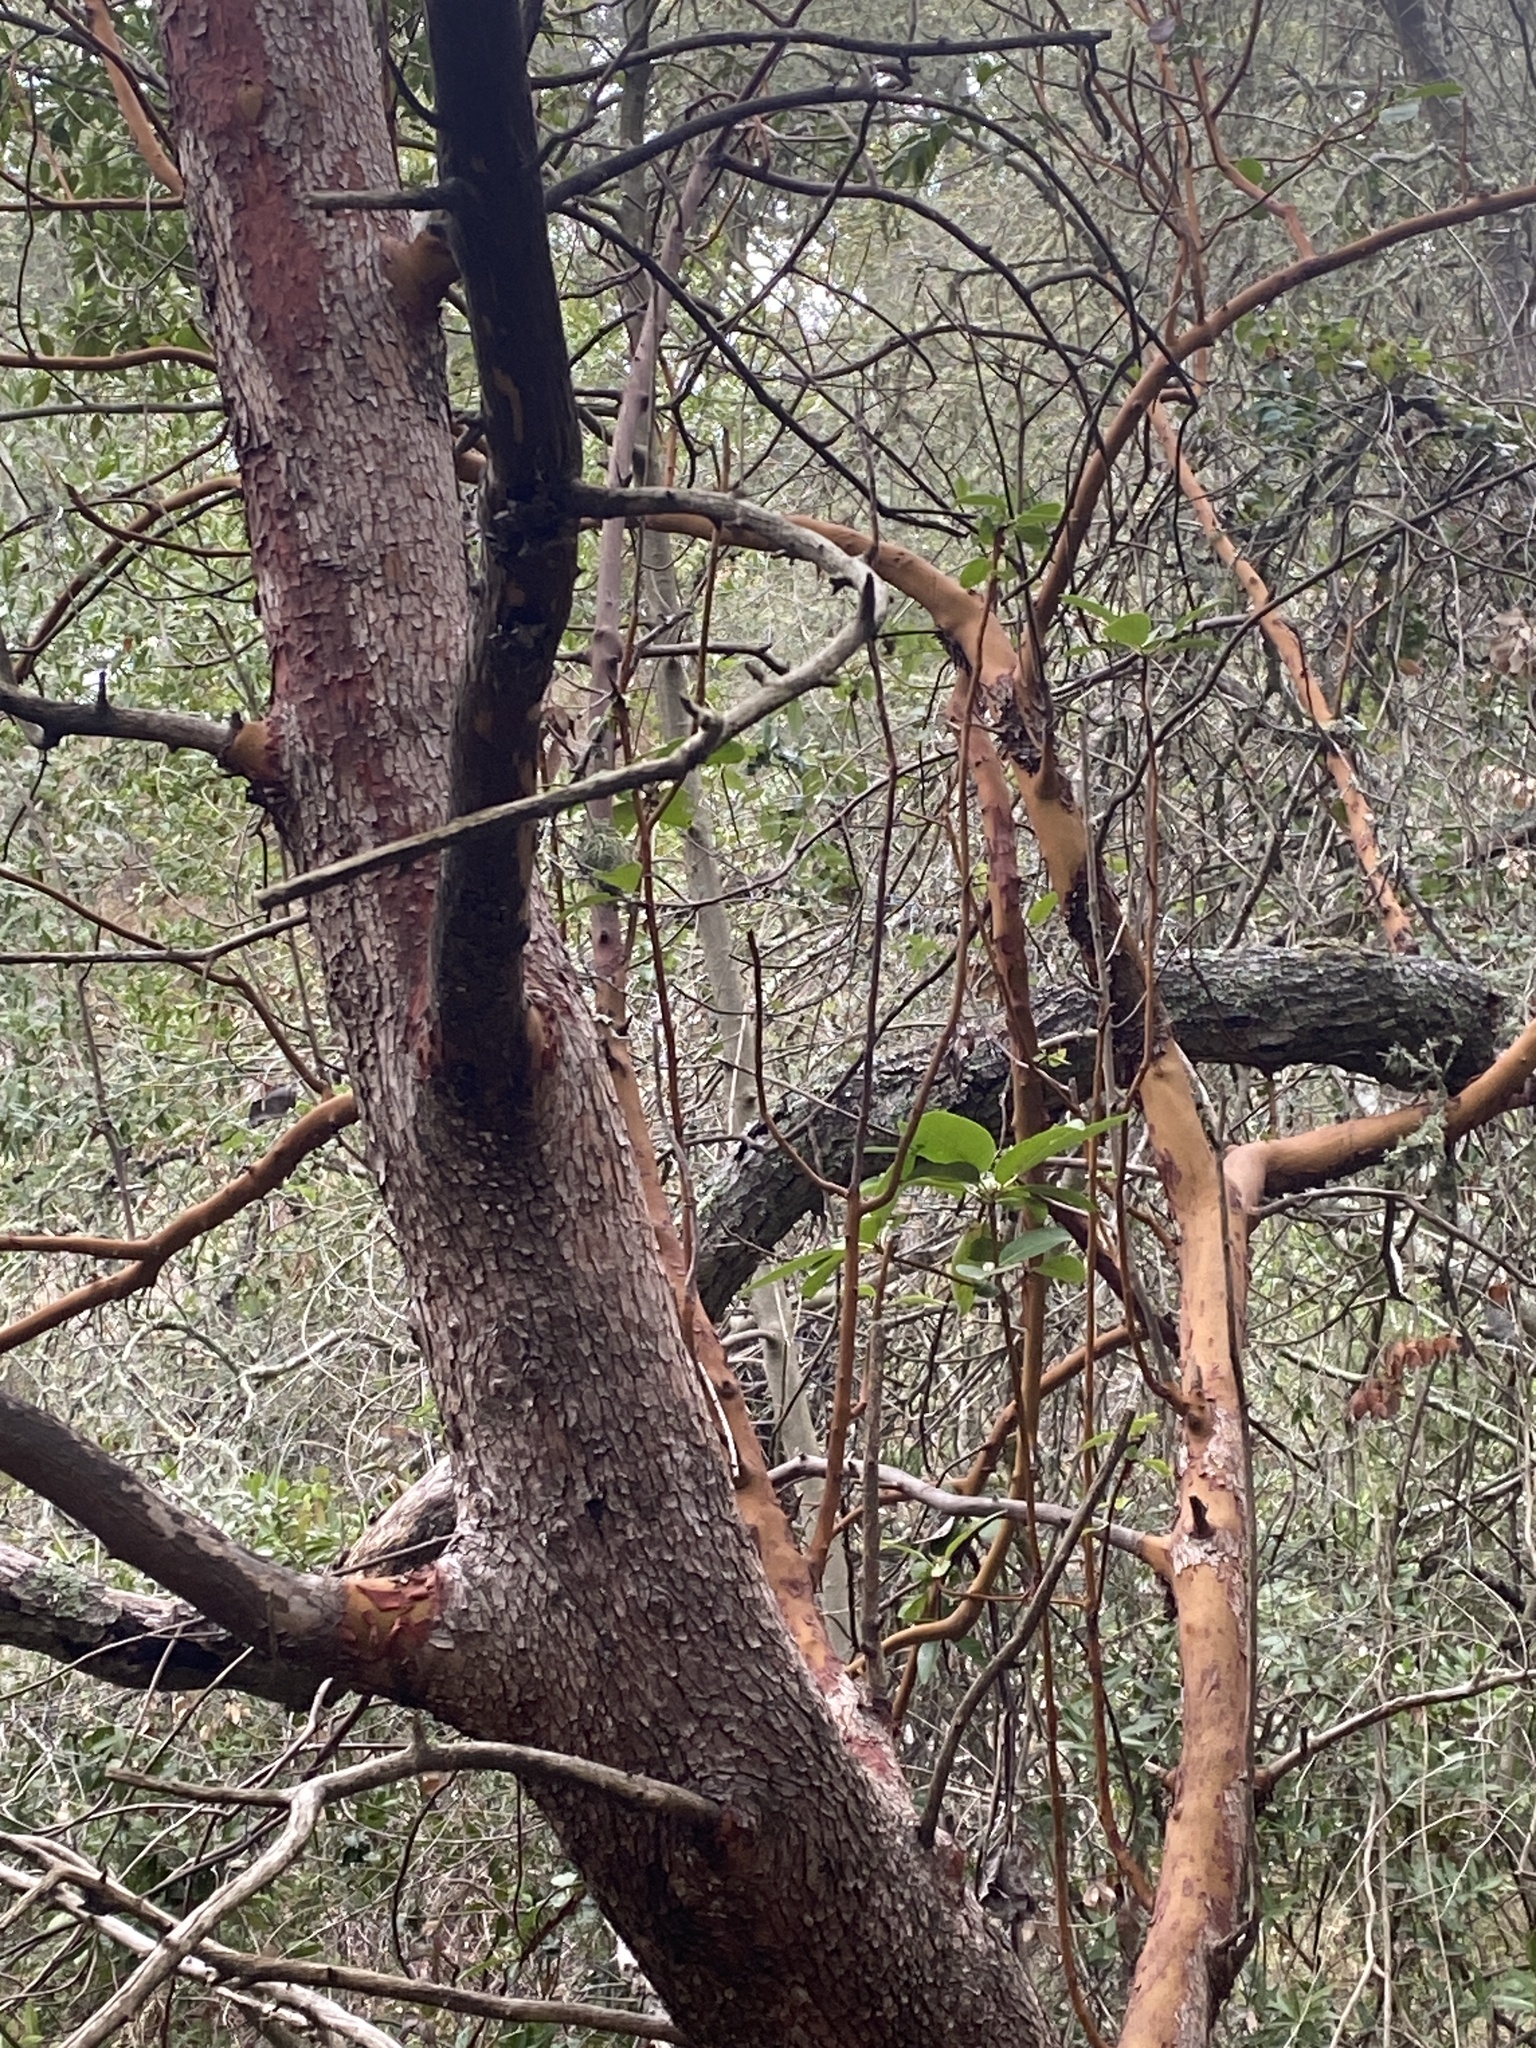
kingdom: Plantae
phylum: Tracheophyta
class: Magnoliopsida
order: Ericales
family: Ericaceae
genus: Arbutus
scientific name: Arbutus menziesii
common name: Pacific madrone
